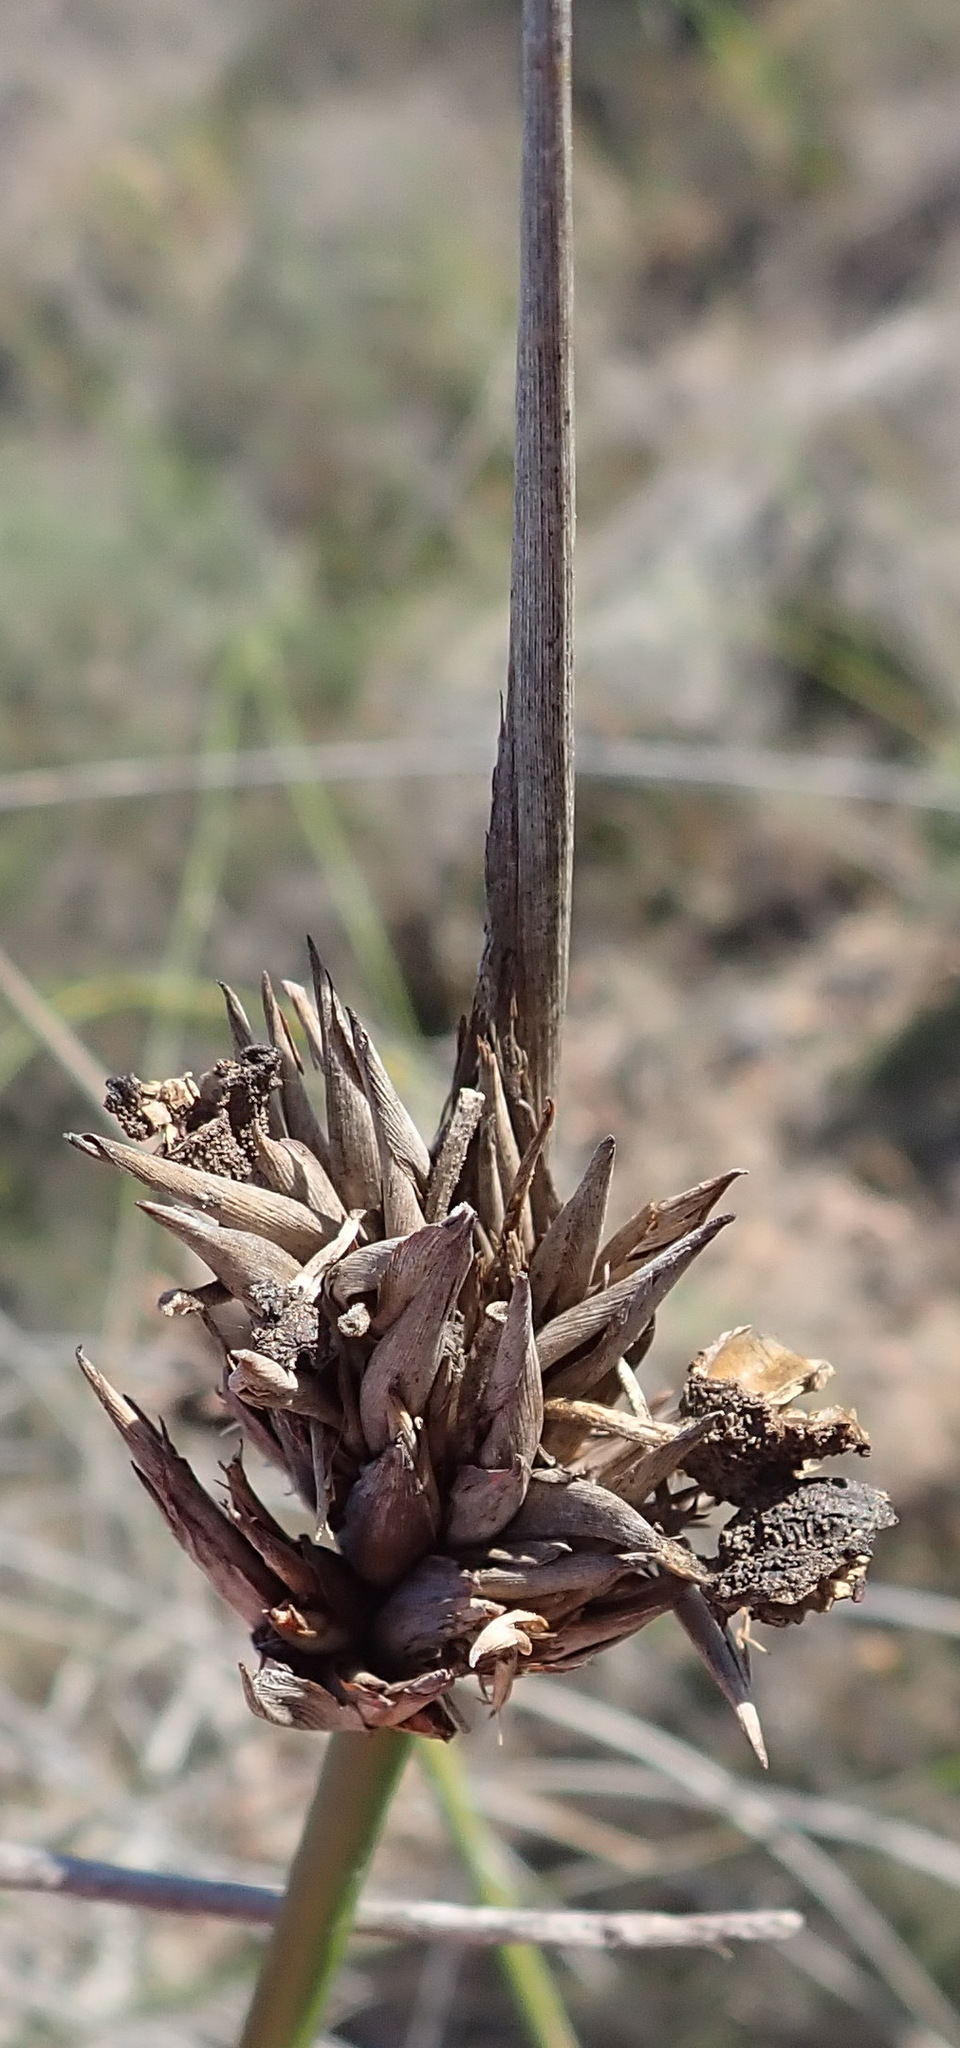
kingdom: Plantae
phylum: Tracheophyta
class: Liliopsida
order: Asparagales
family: Iridaceae
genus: Bobartia
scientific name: Bobartia robusta
